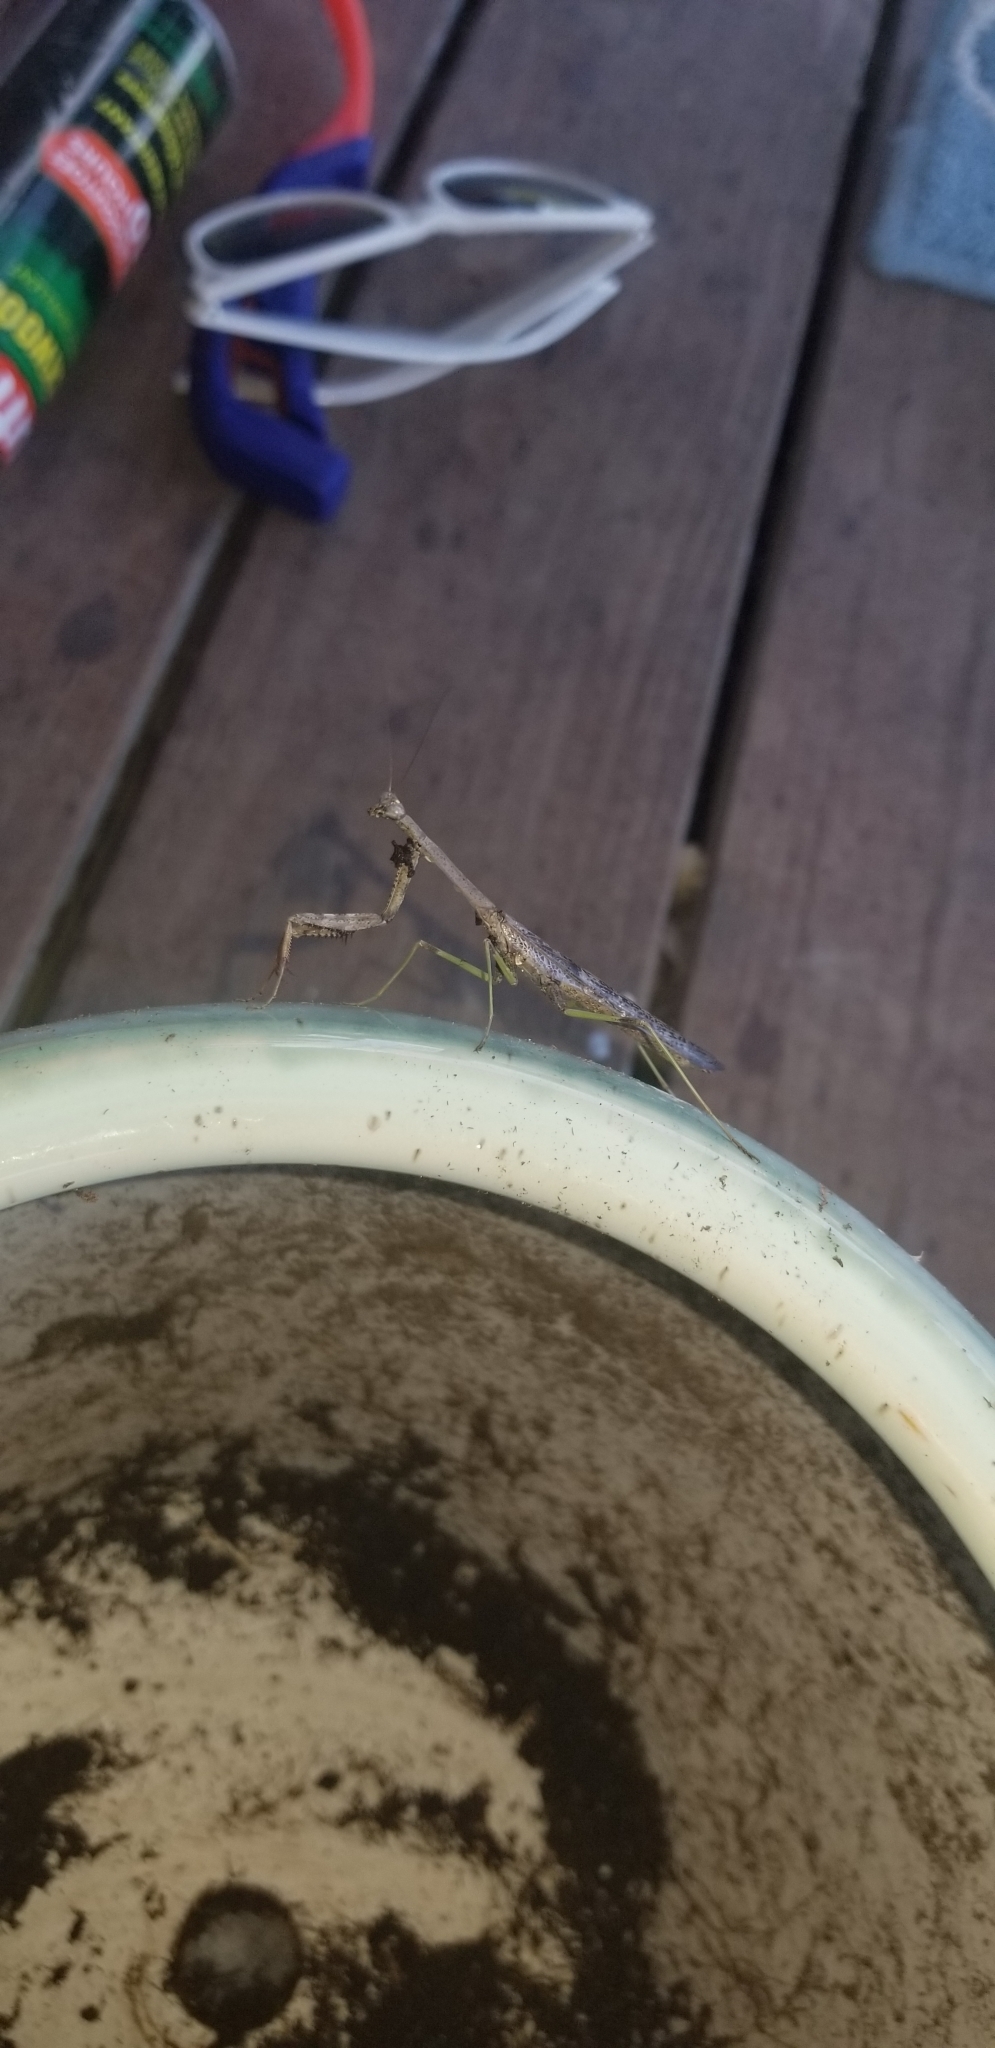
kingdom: Animalia
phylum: Arthropoda
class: Insecta
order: Mantodea
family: Mantidae
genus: Stagmomantis
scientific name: Stagmomantis carolina
